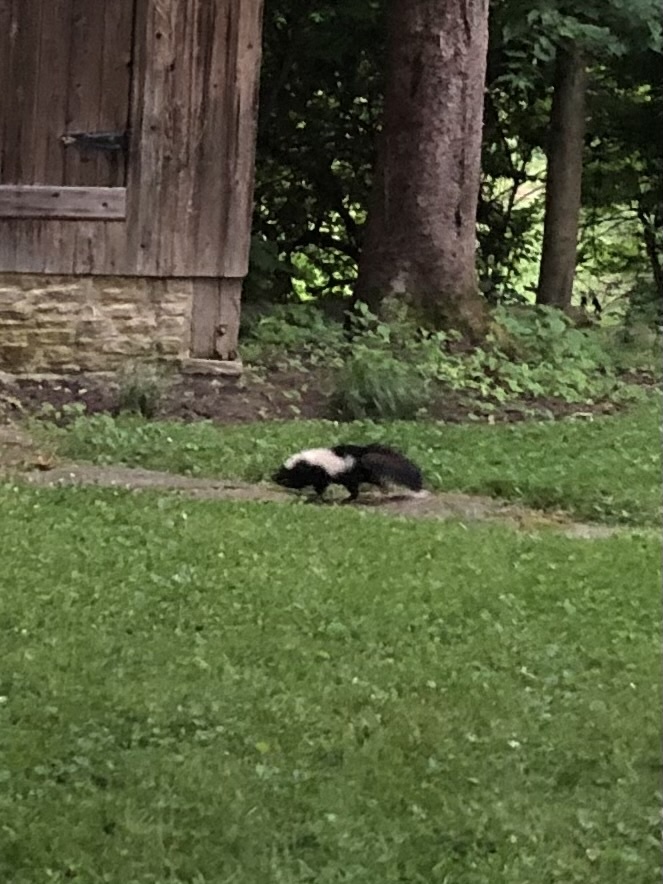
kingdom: Animalia
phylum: Chordata
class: Mammalia
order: Carnivora
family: Mephitidae
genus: Mephitis
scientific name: Mephitis mephitis
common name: Striped skunk
